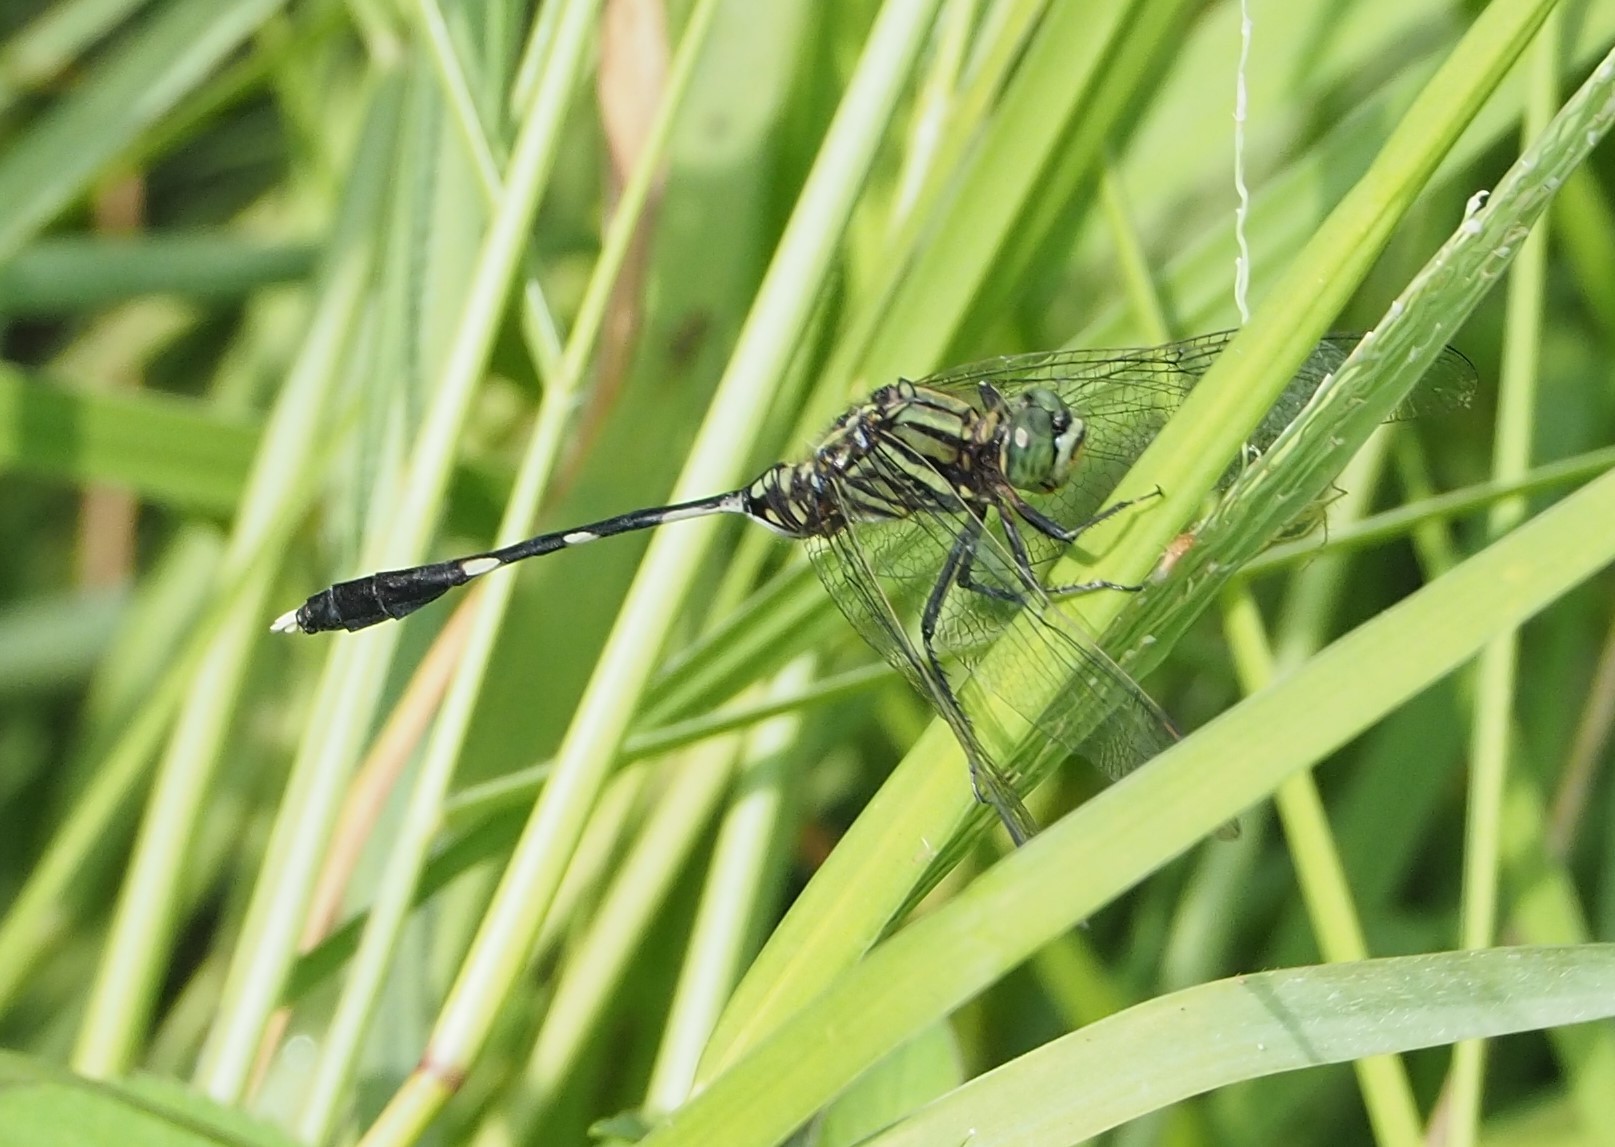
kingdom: Animalia
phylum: Arthropoda
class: Insecta
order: Odonata
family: Libellulidae
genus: Orthetrum
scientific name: Orthetrum sabina
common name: Slender skimmer
